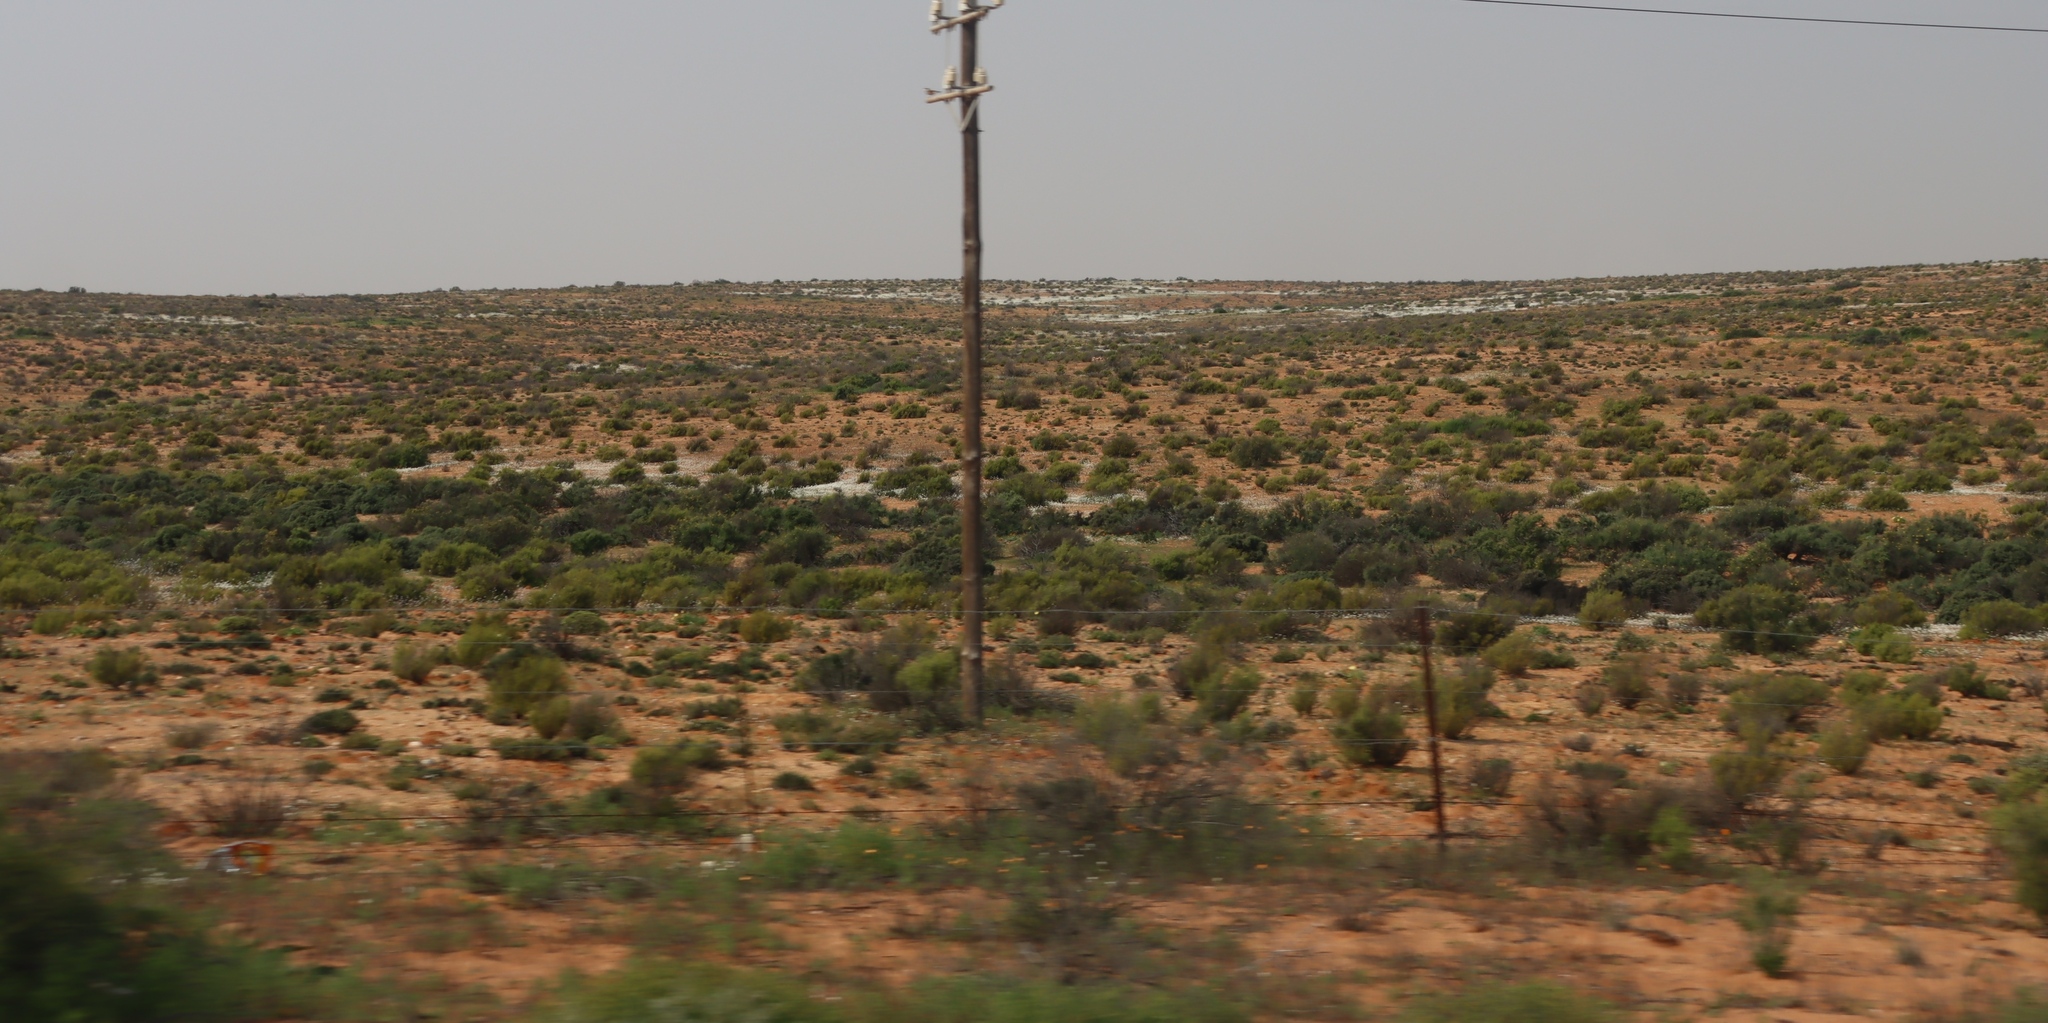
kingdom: Plantae
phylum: Tracheophyta
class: Magnoliopsida
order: Brassicales
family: Brassicaceae
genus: Heliophila
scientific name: Heliophila variabilis
